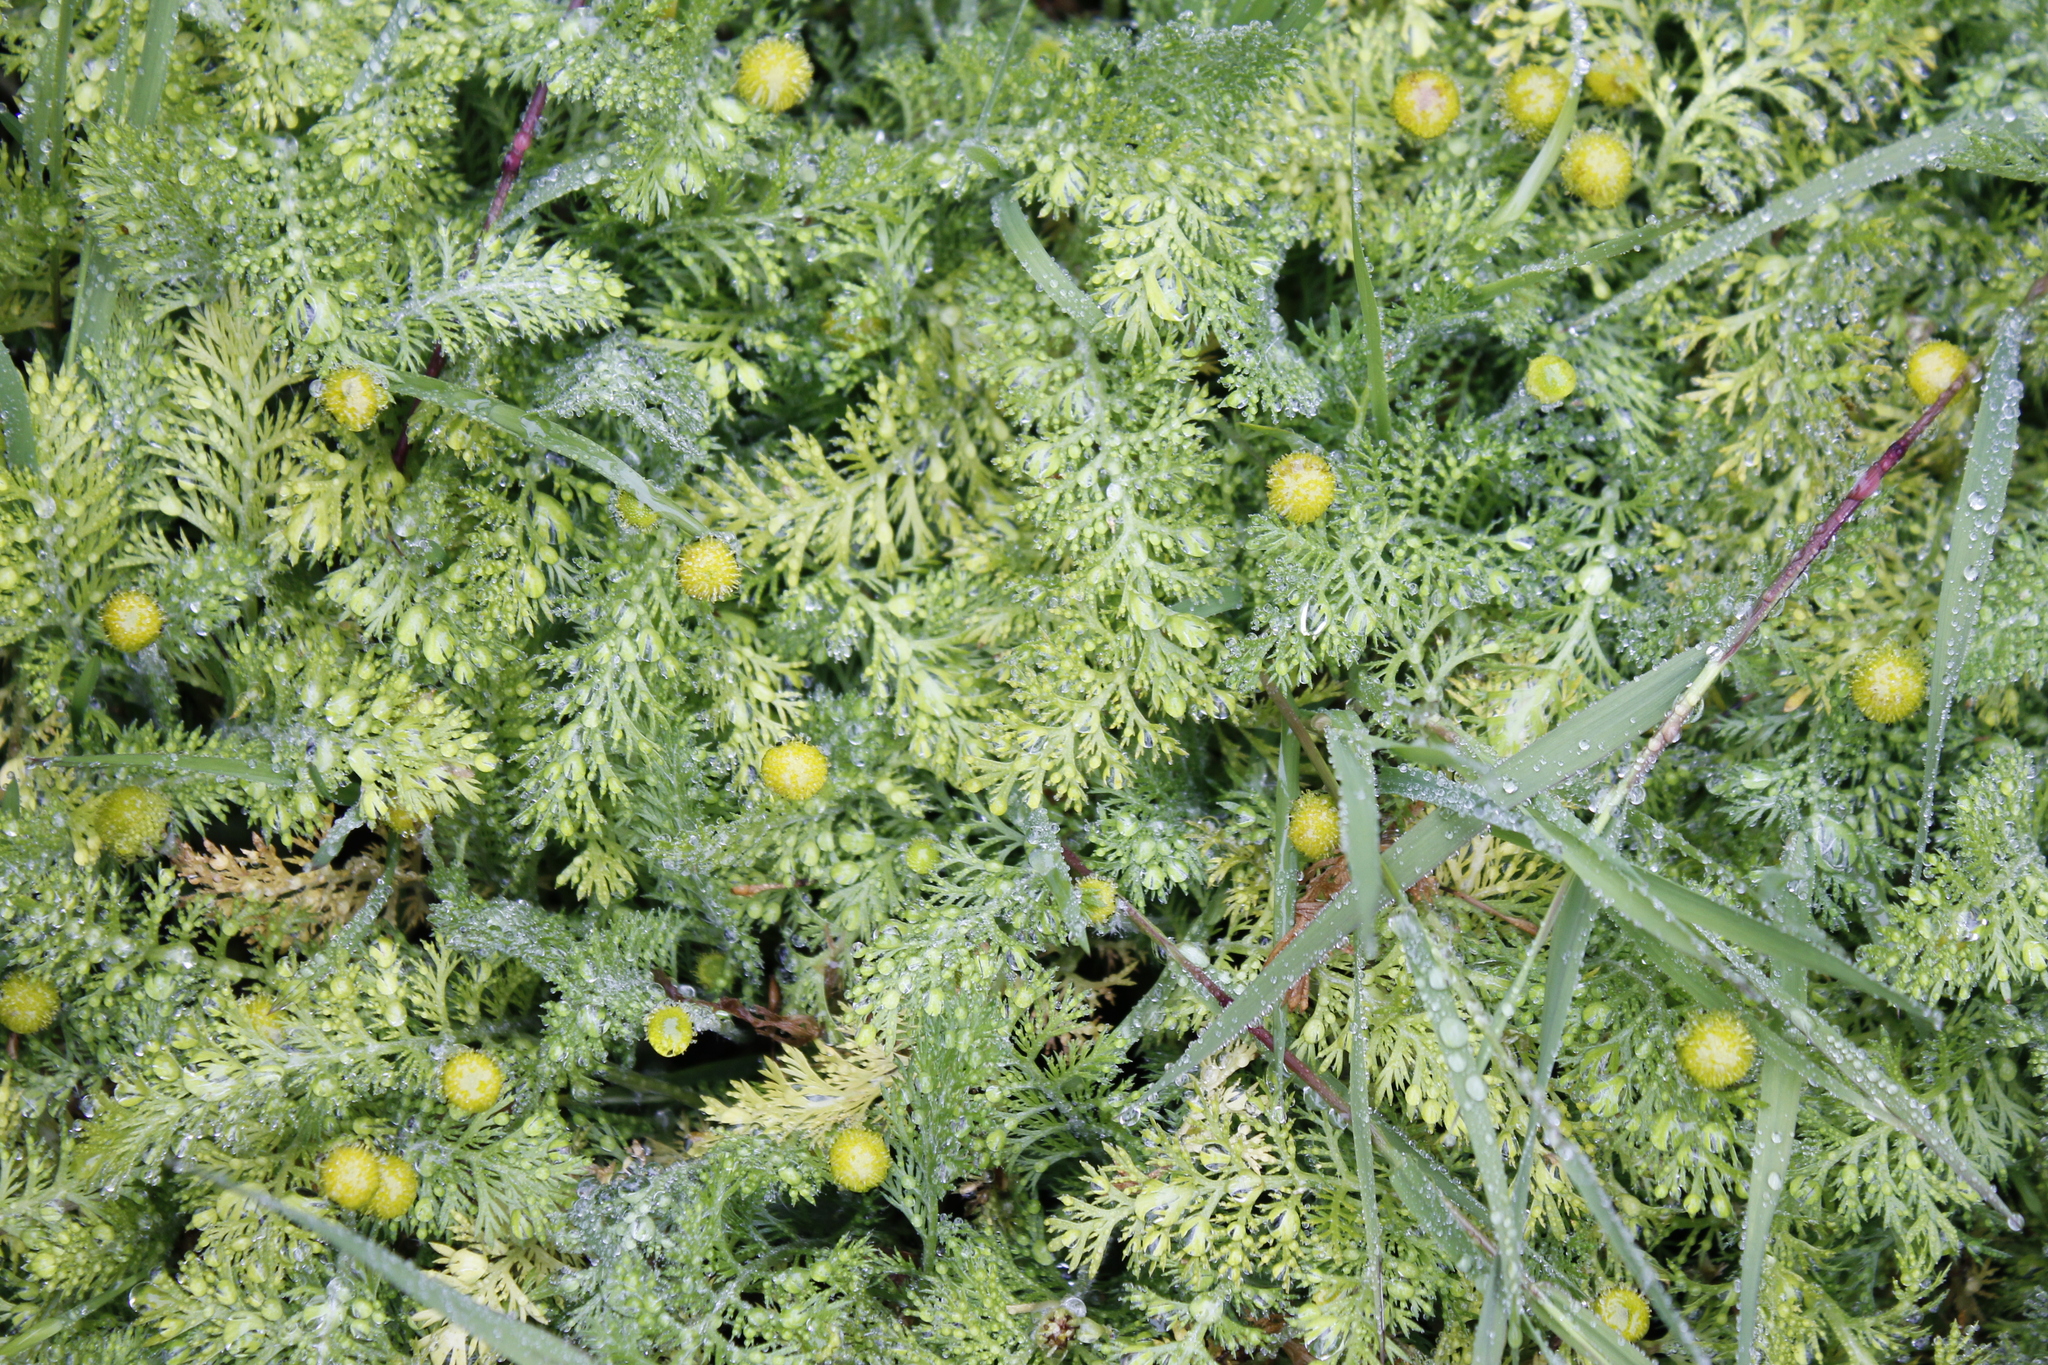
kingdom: Plantae
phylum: Tracheophyta
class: Magnoliopsida
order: Asterales
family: Asteraceae
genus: Leptinella
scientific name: Leptinella plumosa
